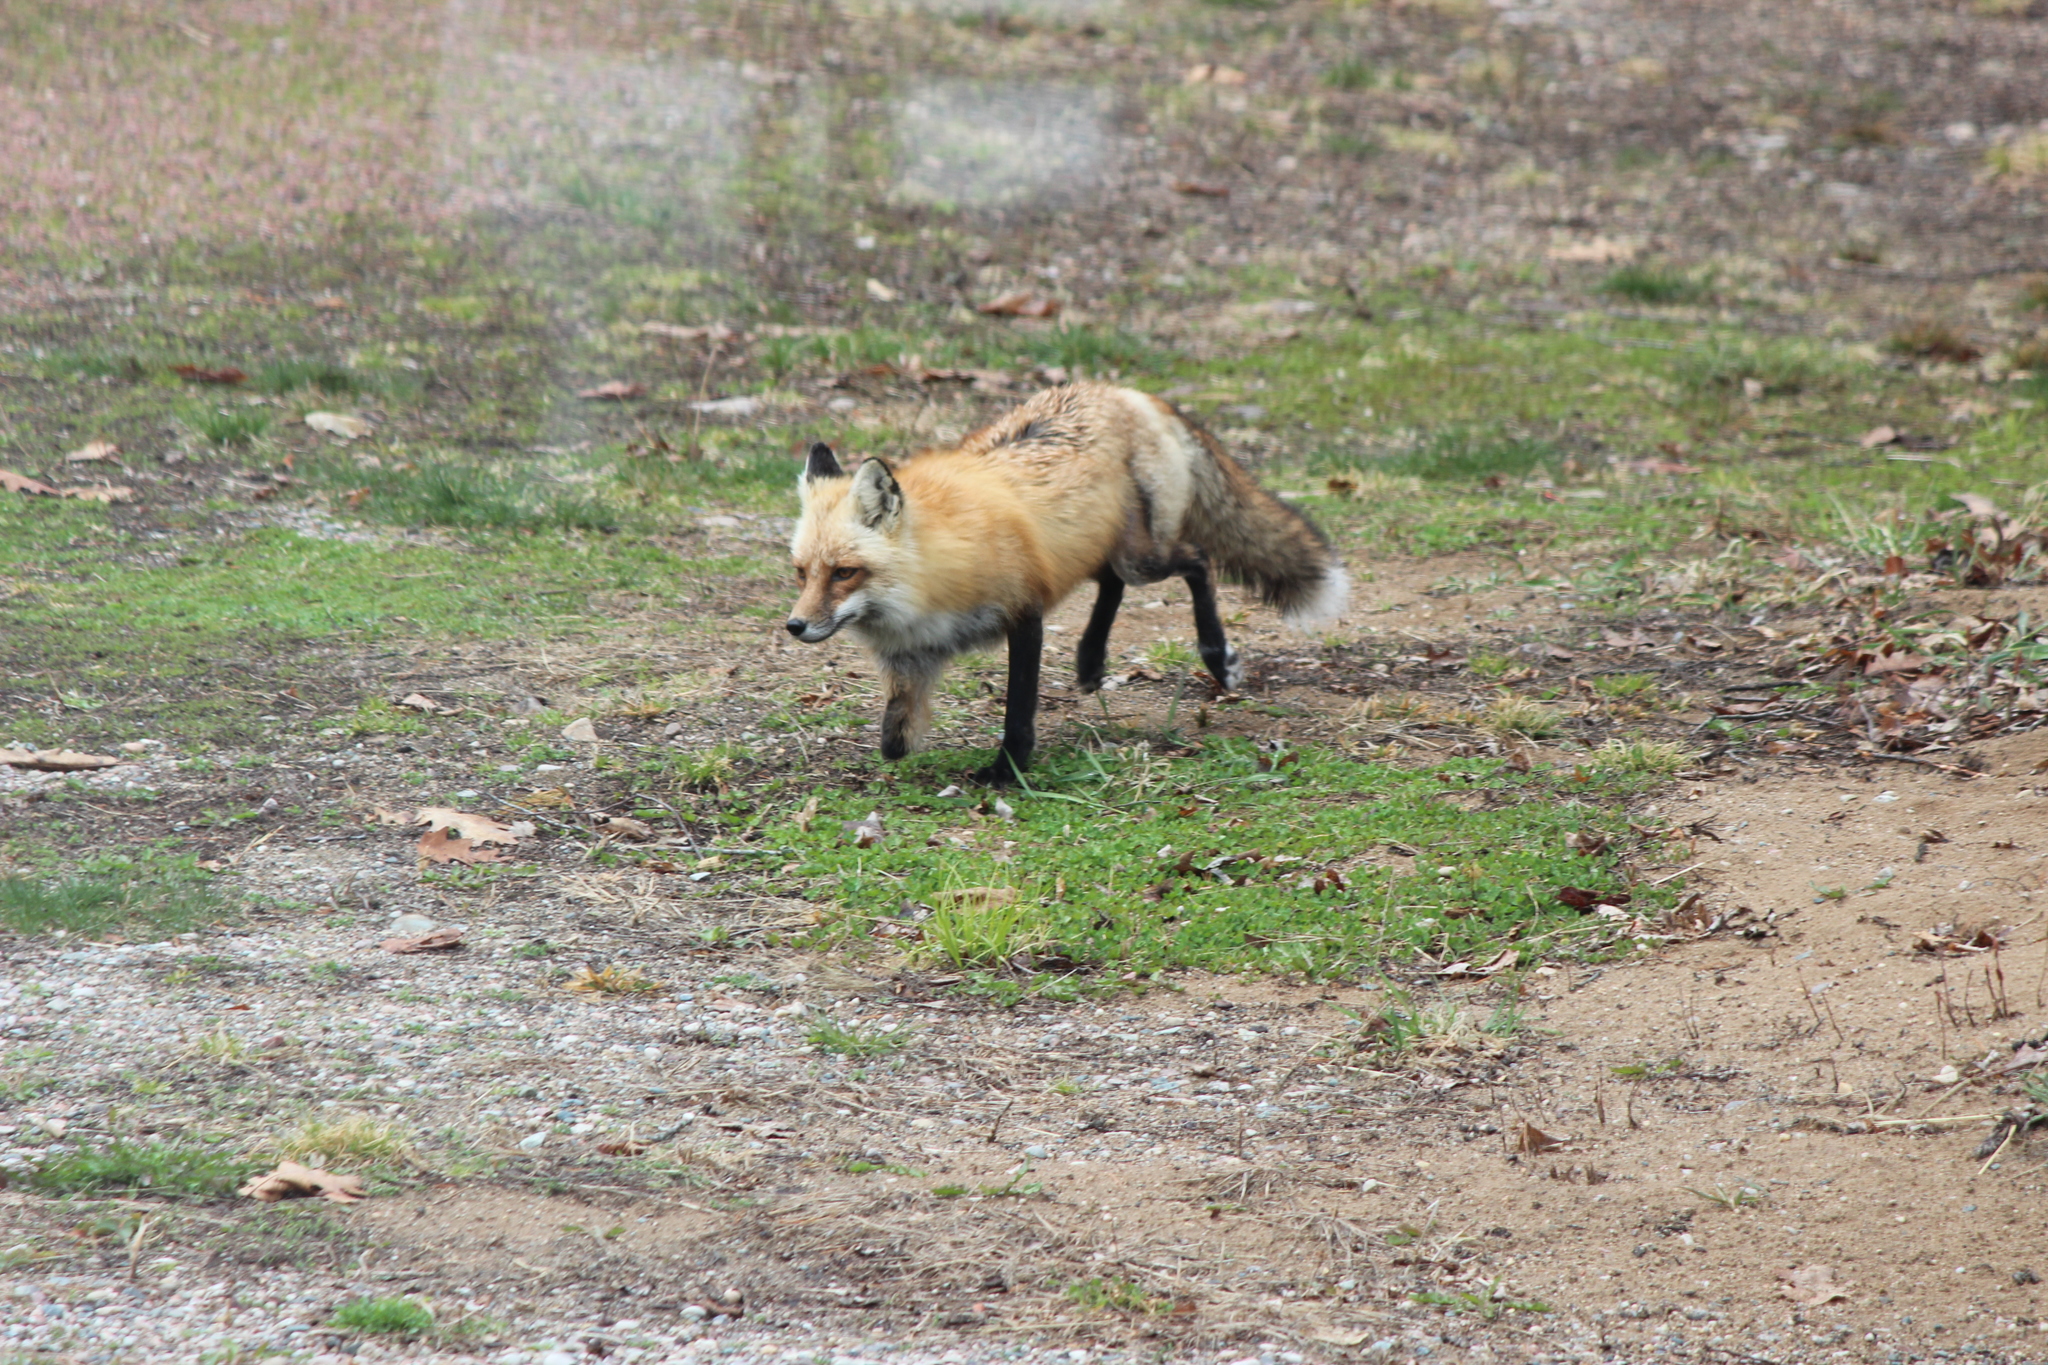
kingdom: Animalia
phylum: Chordata
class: Mammalia
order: Carnivora
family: Canidae
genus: Vulpes
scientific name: Vulpes vulpes
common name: Red fox
